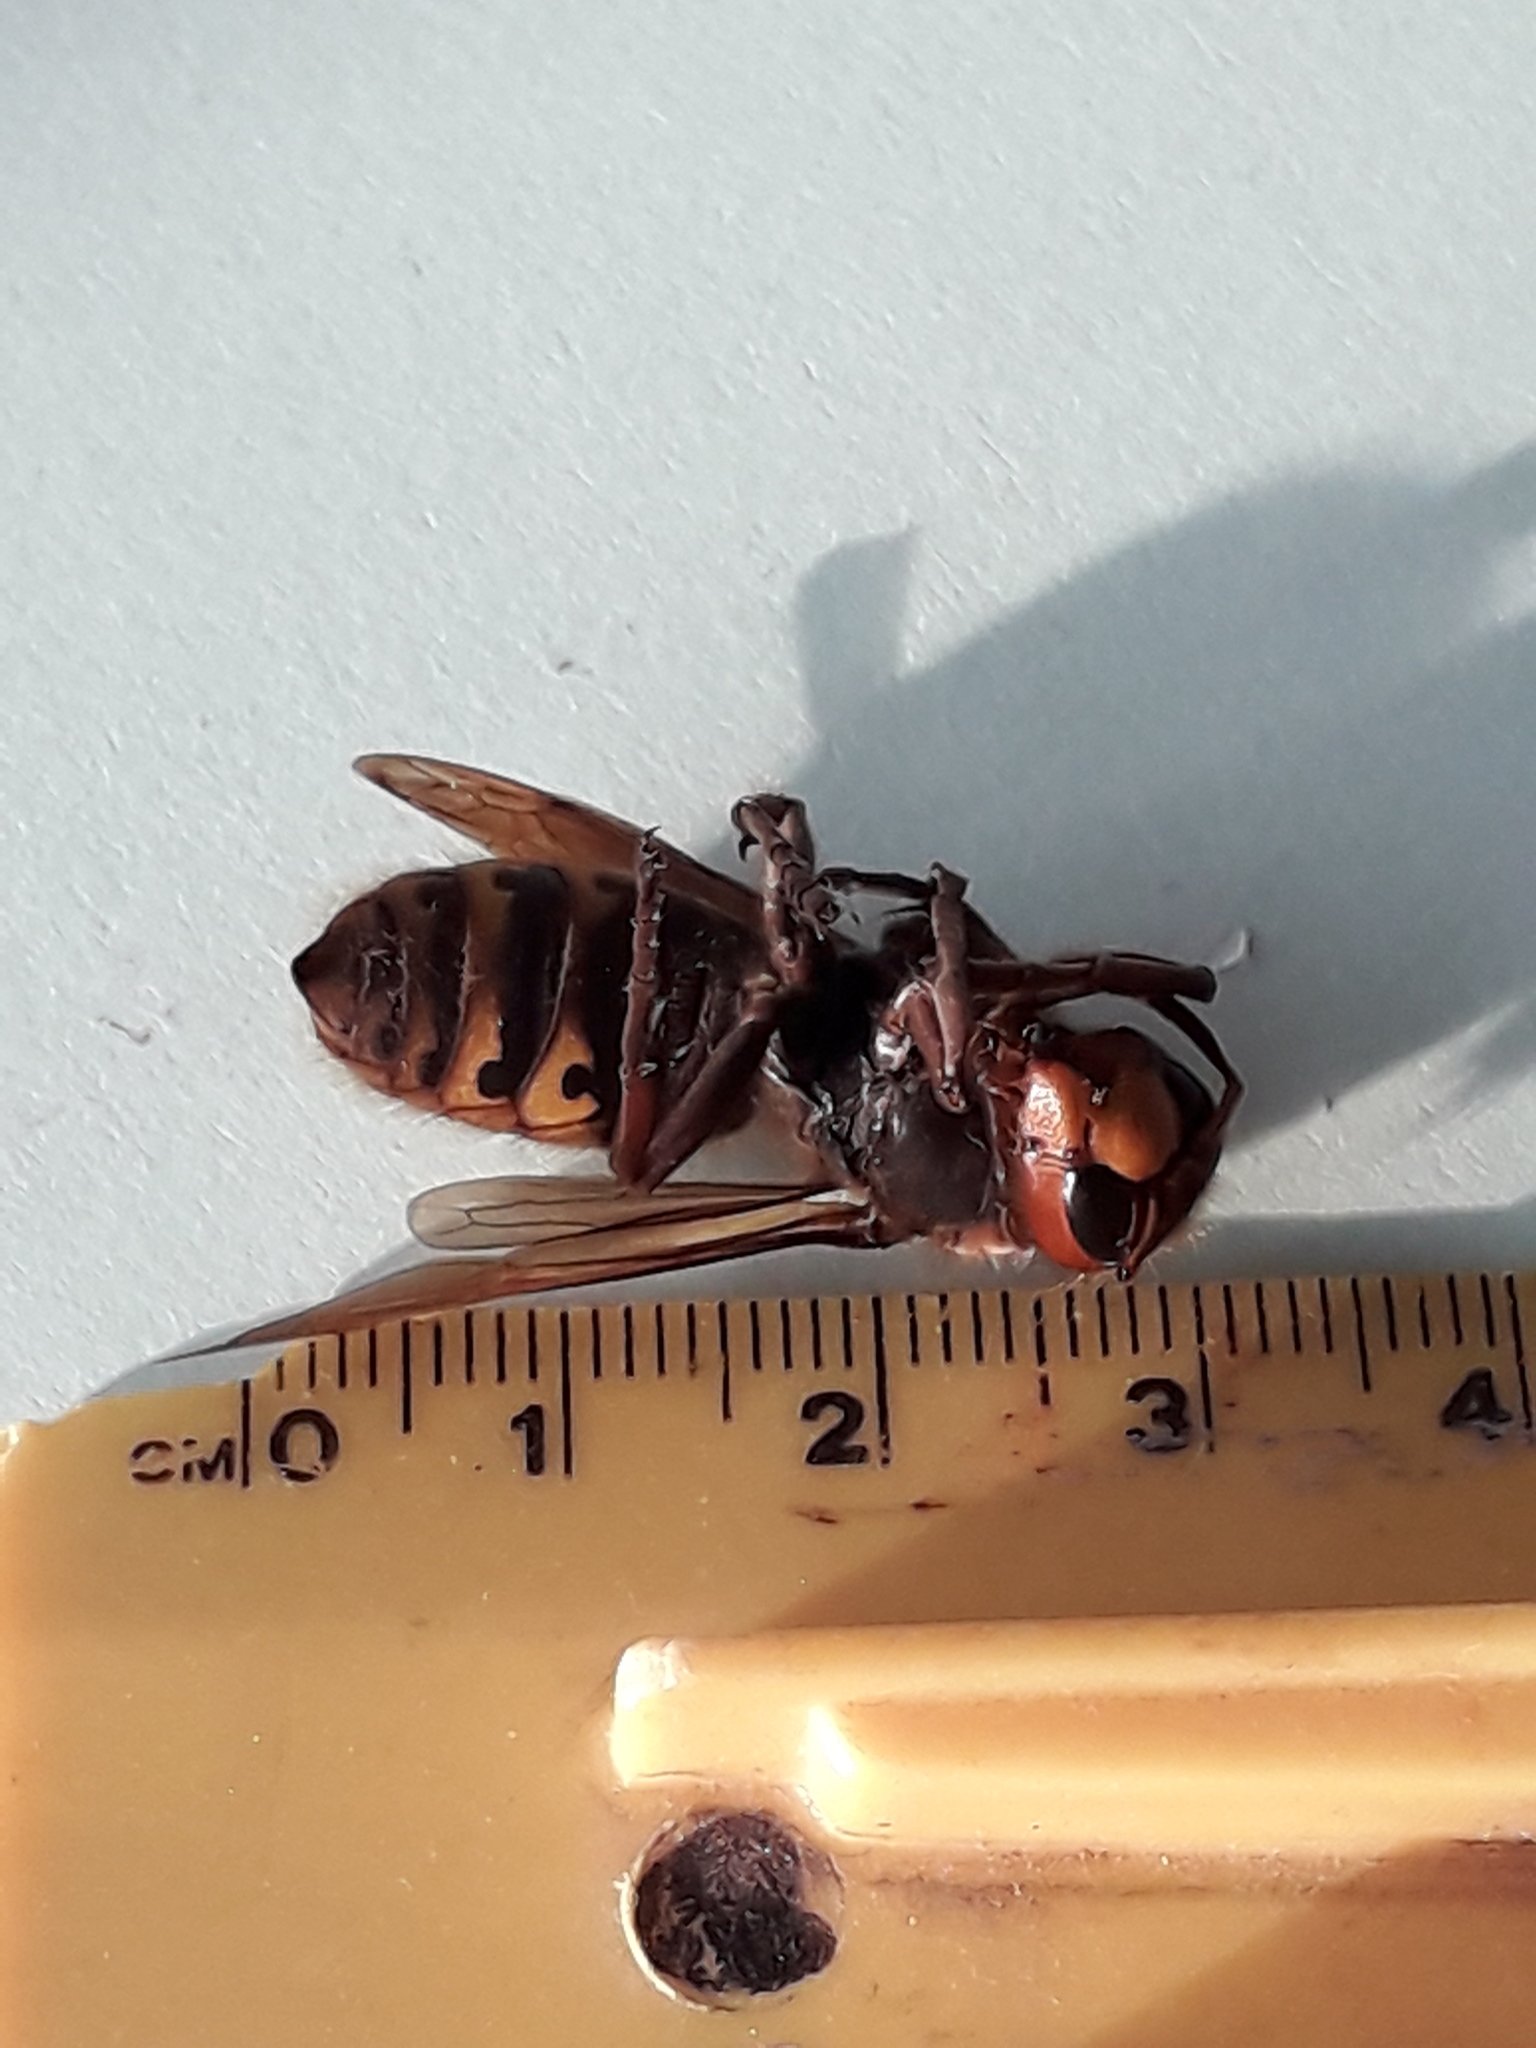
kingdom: Animalia
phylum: Arthropoda
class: Insecta
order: Hymenoptera
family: Vespidae
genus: Vespa
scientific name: Vespa crabro
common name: Hornet
